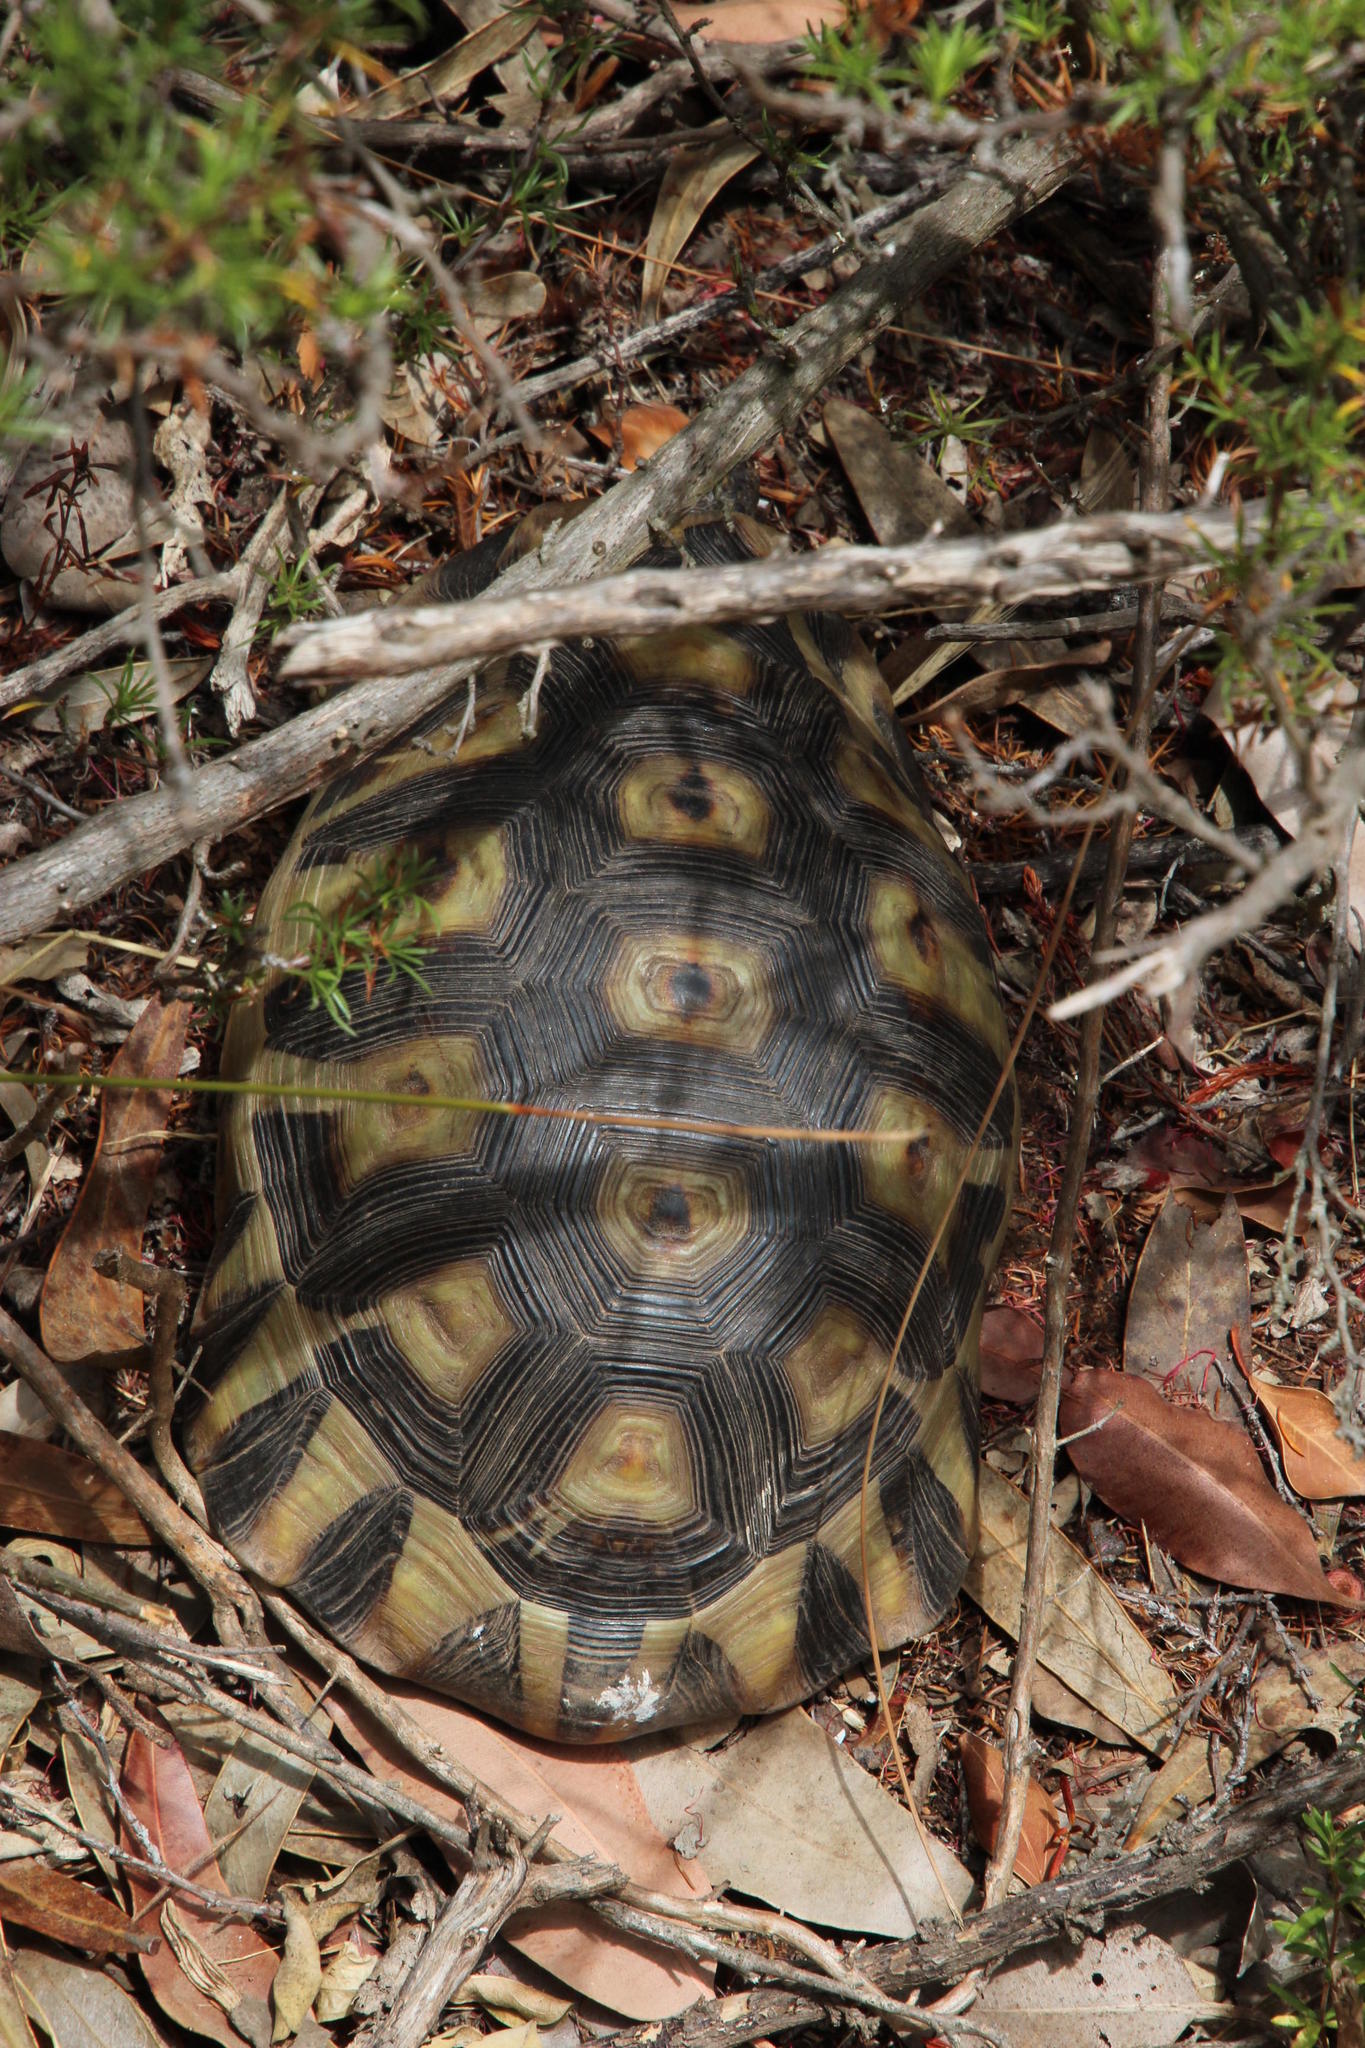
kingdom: Animalia
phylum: Chordata
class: Testudines
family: Testudinidae
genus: Chersina
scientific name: Chersina angulata
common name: South african bowsprit tortoise
